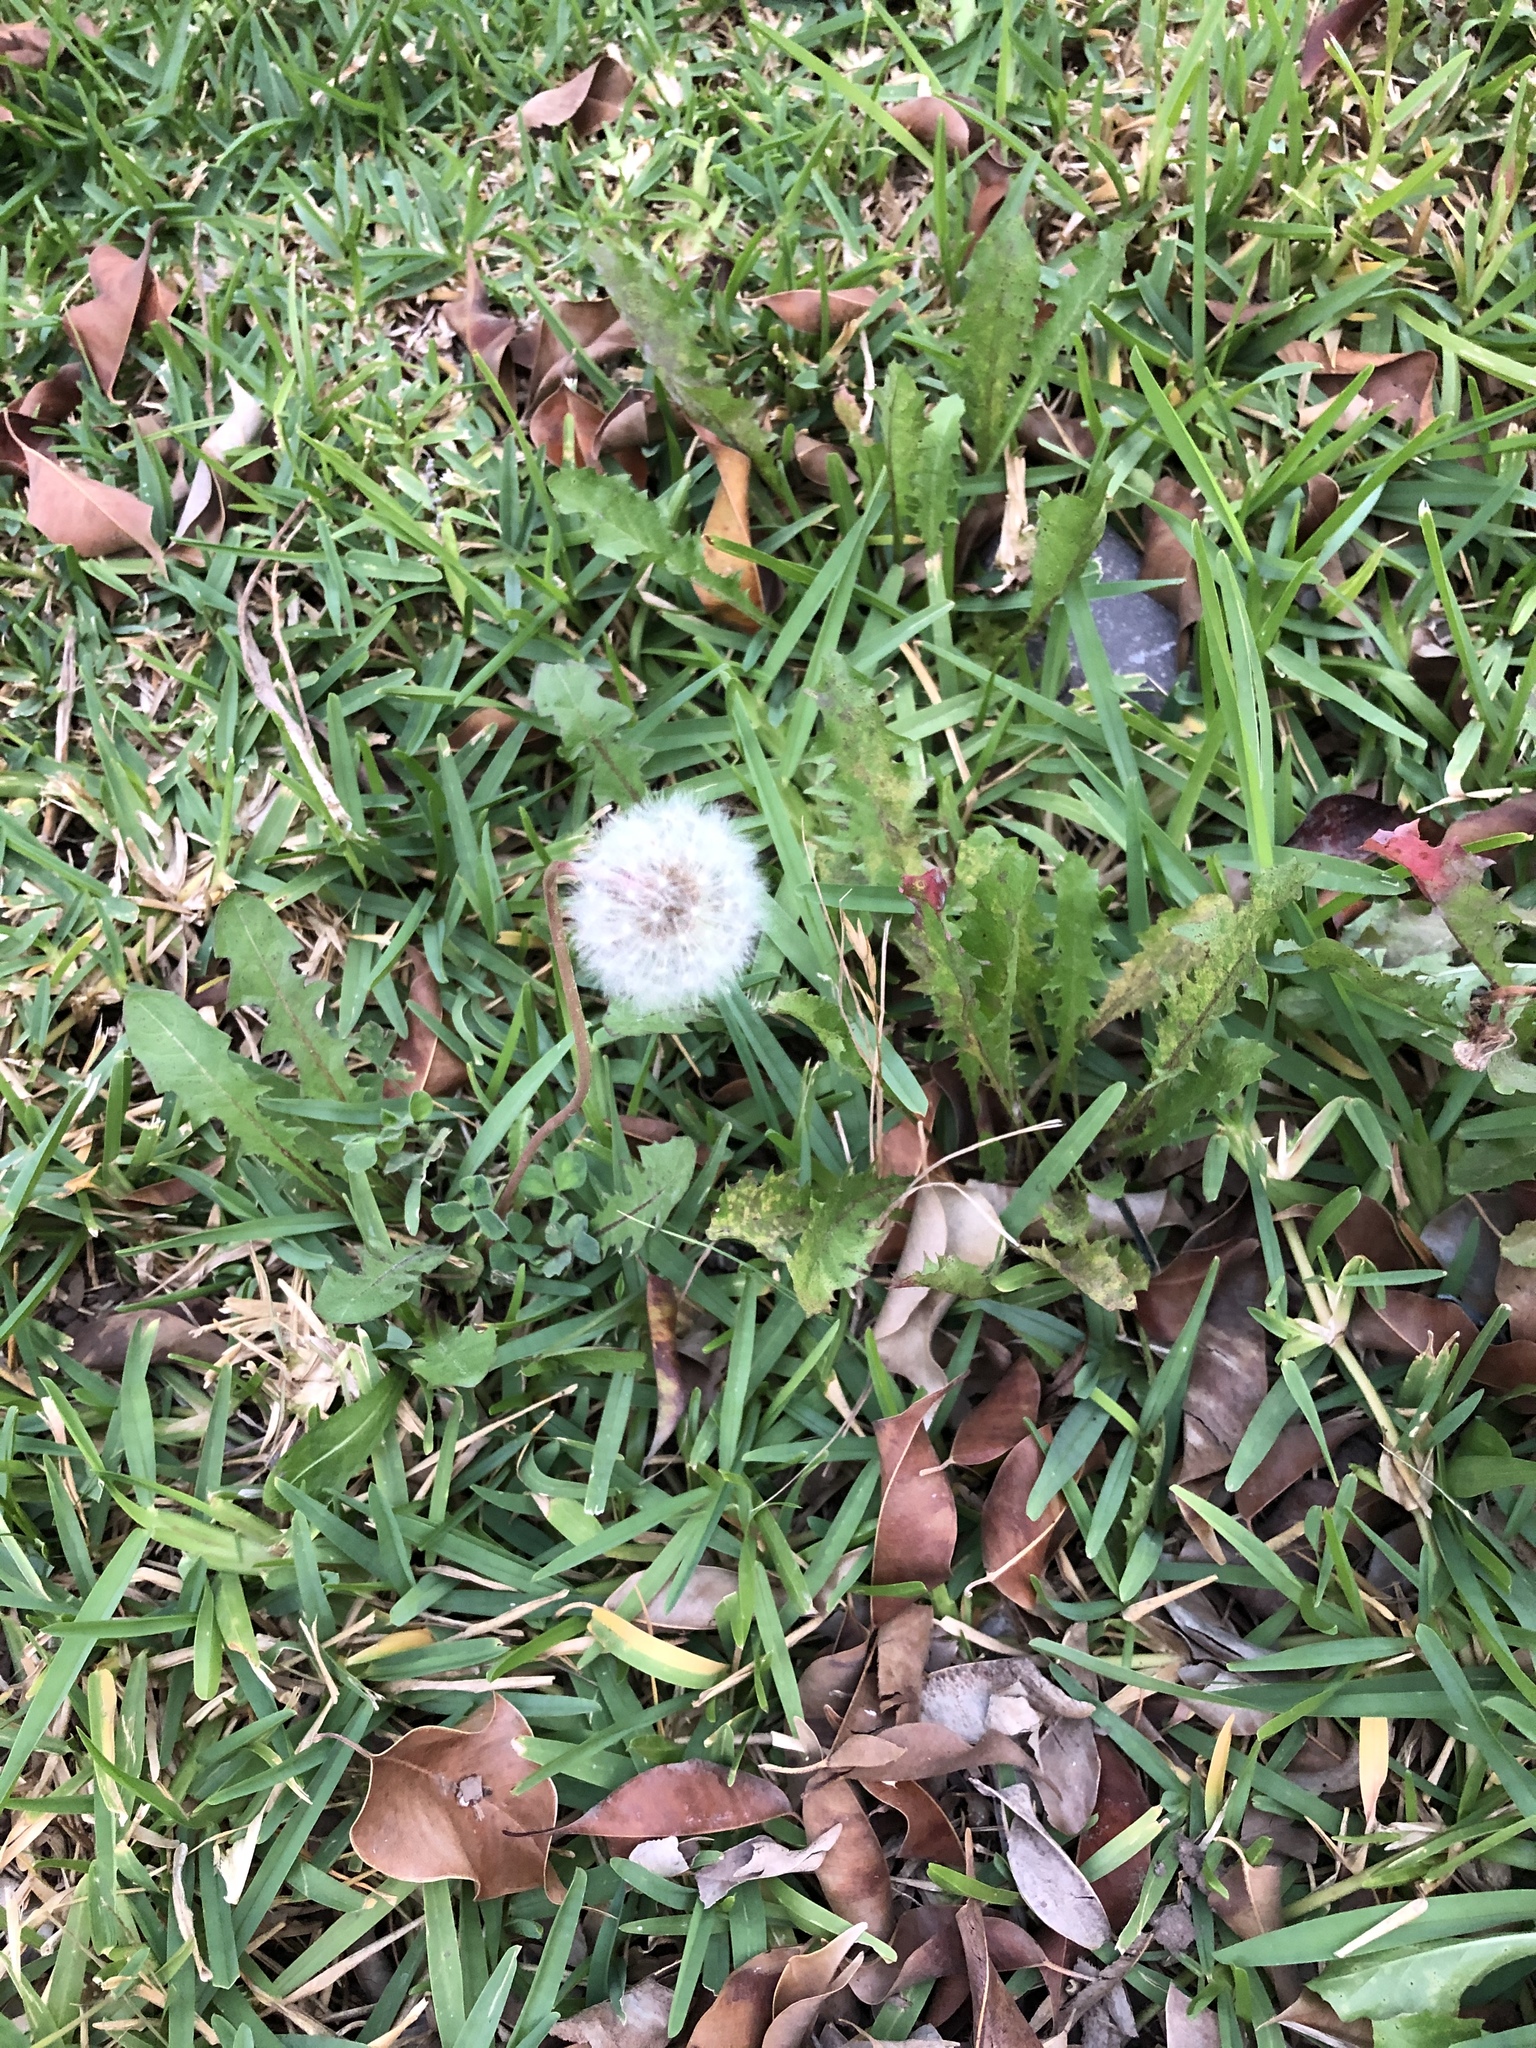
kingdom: Plantae
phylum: Tracheophyta
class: Magnoliopsida
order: Asterales
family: Asteraceae
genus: Taraxacum
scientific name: Taraxacum officinale
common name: Common dandelion
